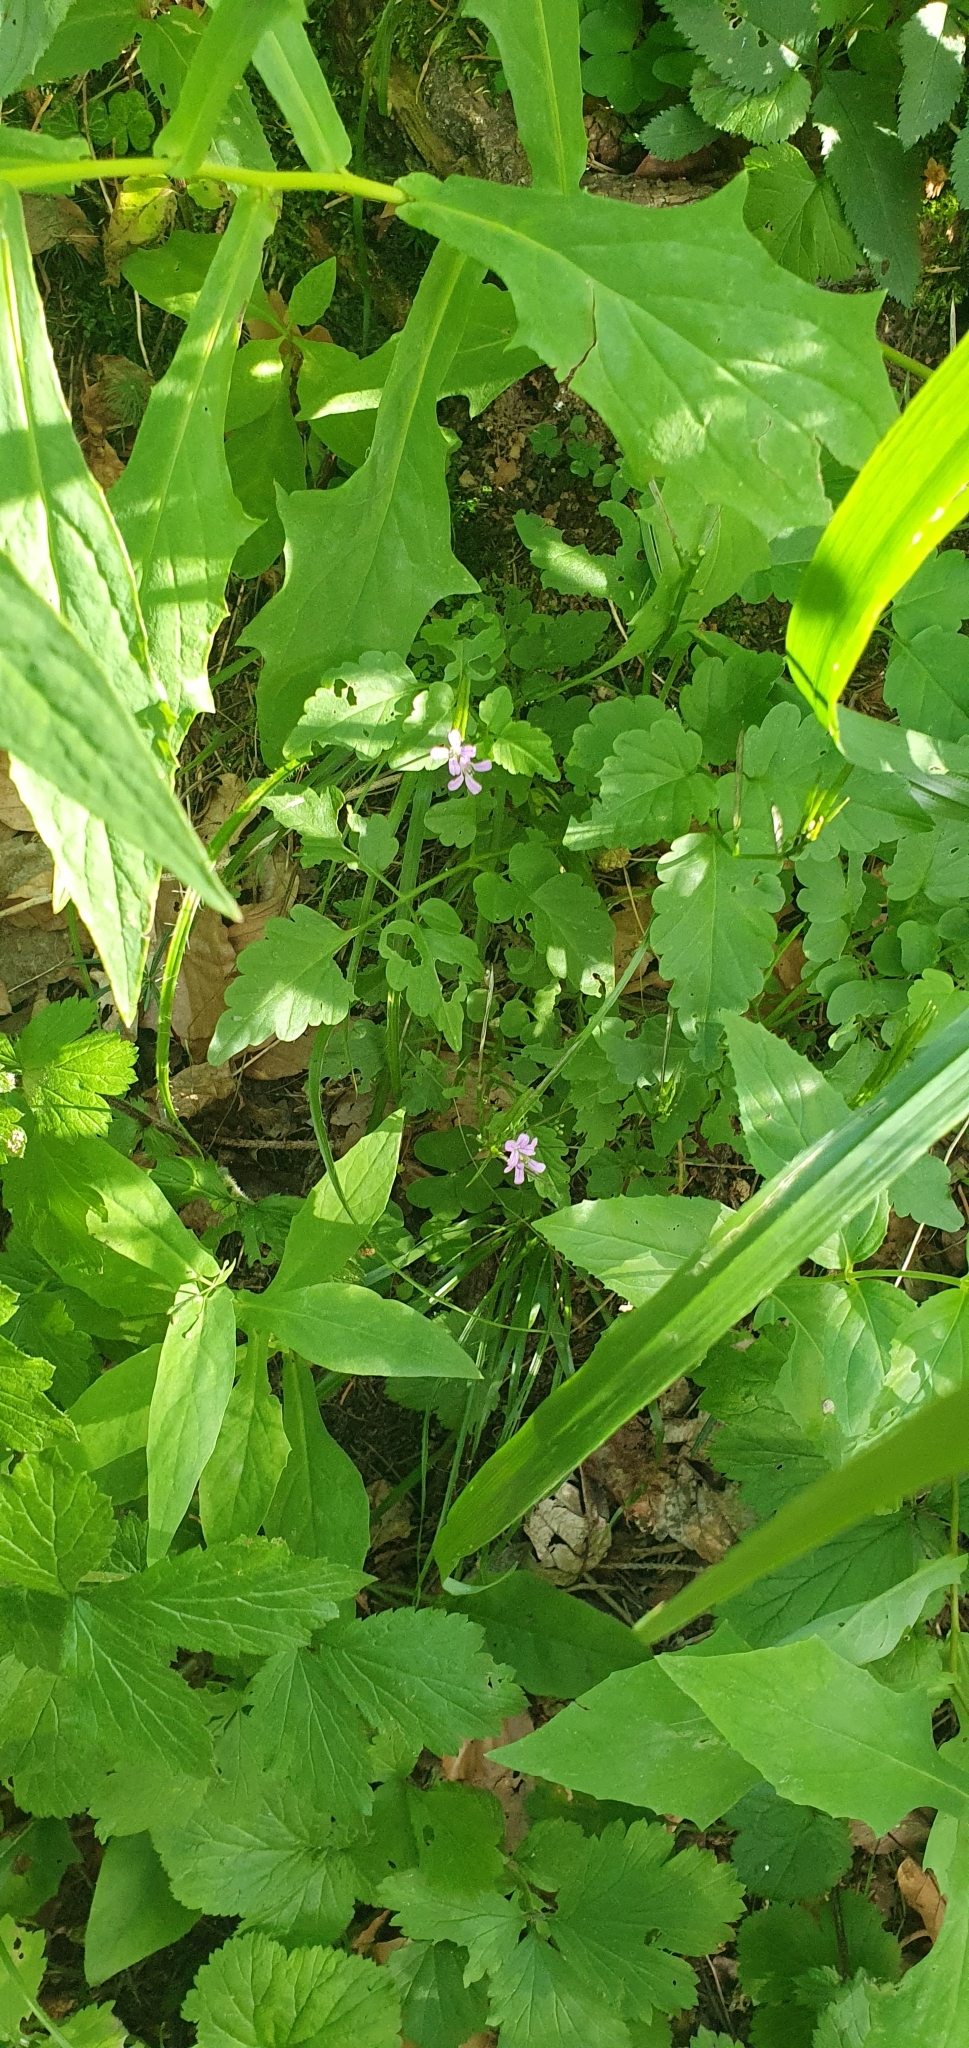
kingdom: Plantae
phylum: Tracheophyta
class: Magnoliopsida
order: Brassicales
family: Brassicaceae
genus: Cardamine
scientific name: Cardamine chelidonia
